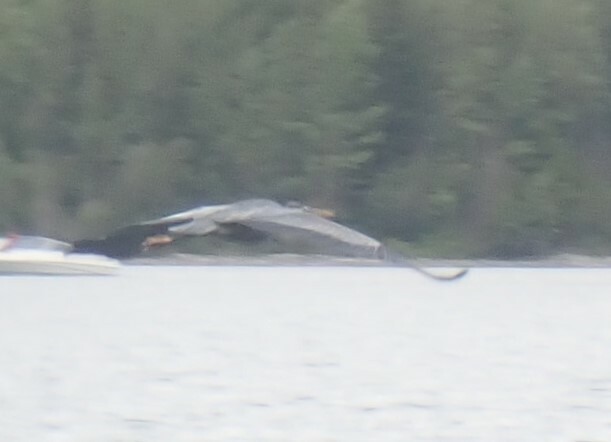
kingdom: Animalia
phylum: Chordata
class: Aves
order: Pelecaniformes
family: Ardeidae
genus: Ardea
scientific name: Ardea herodias
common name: Great blue heron
